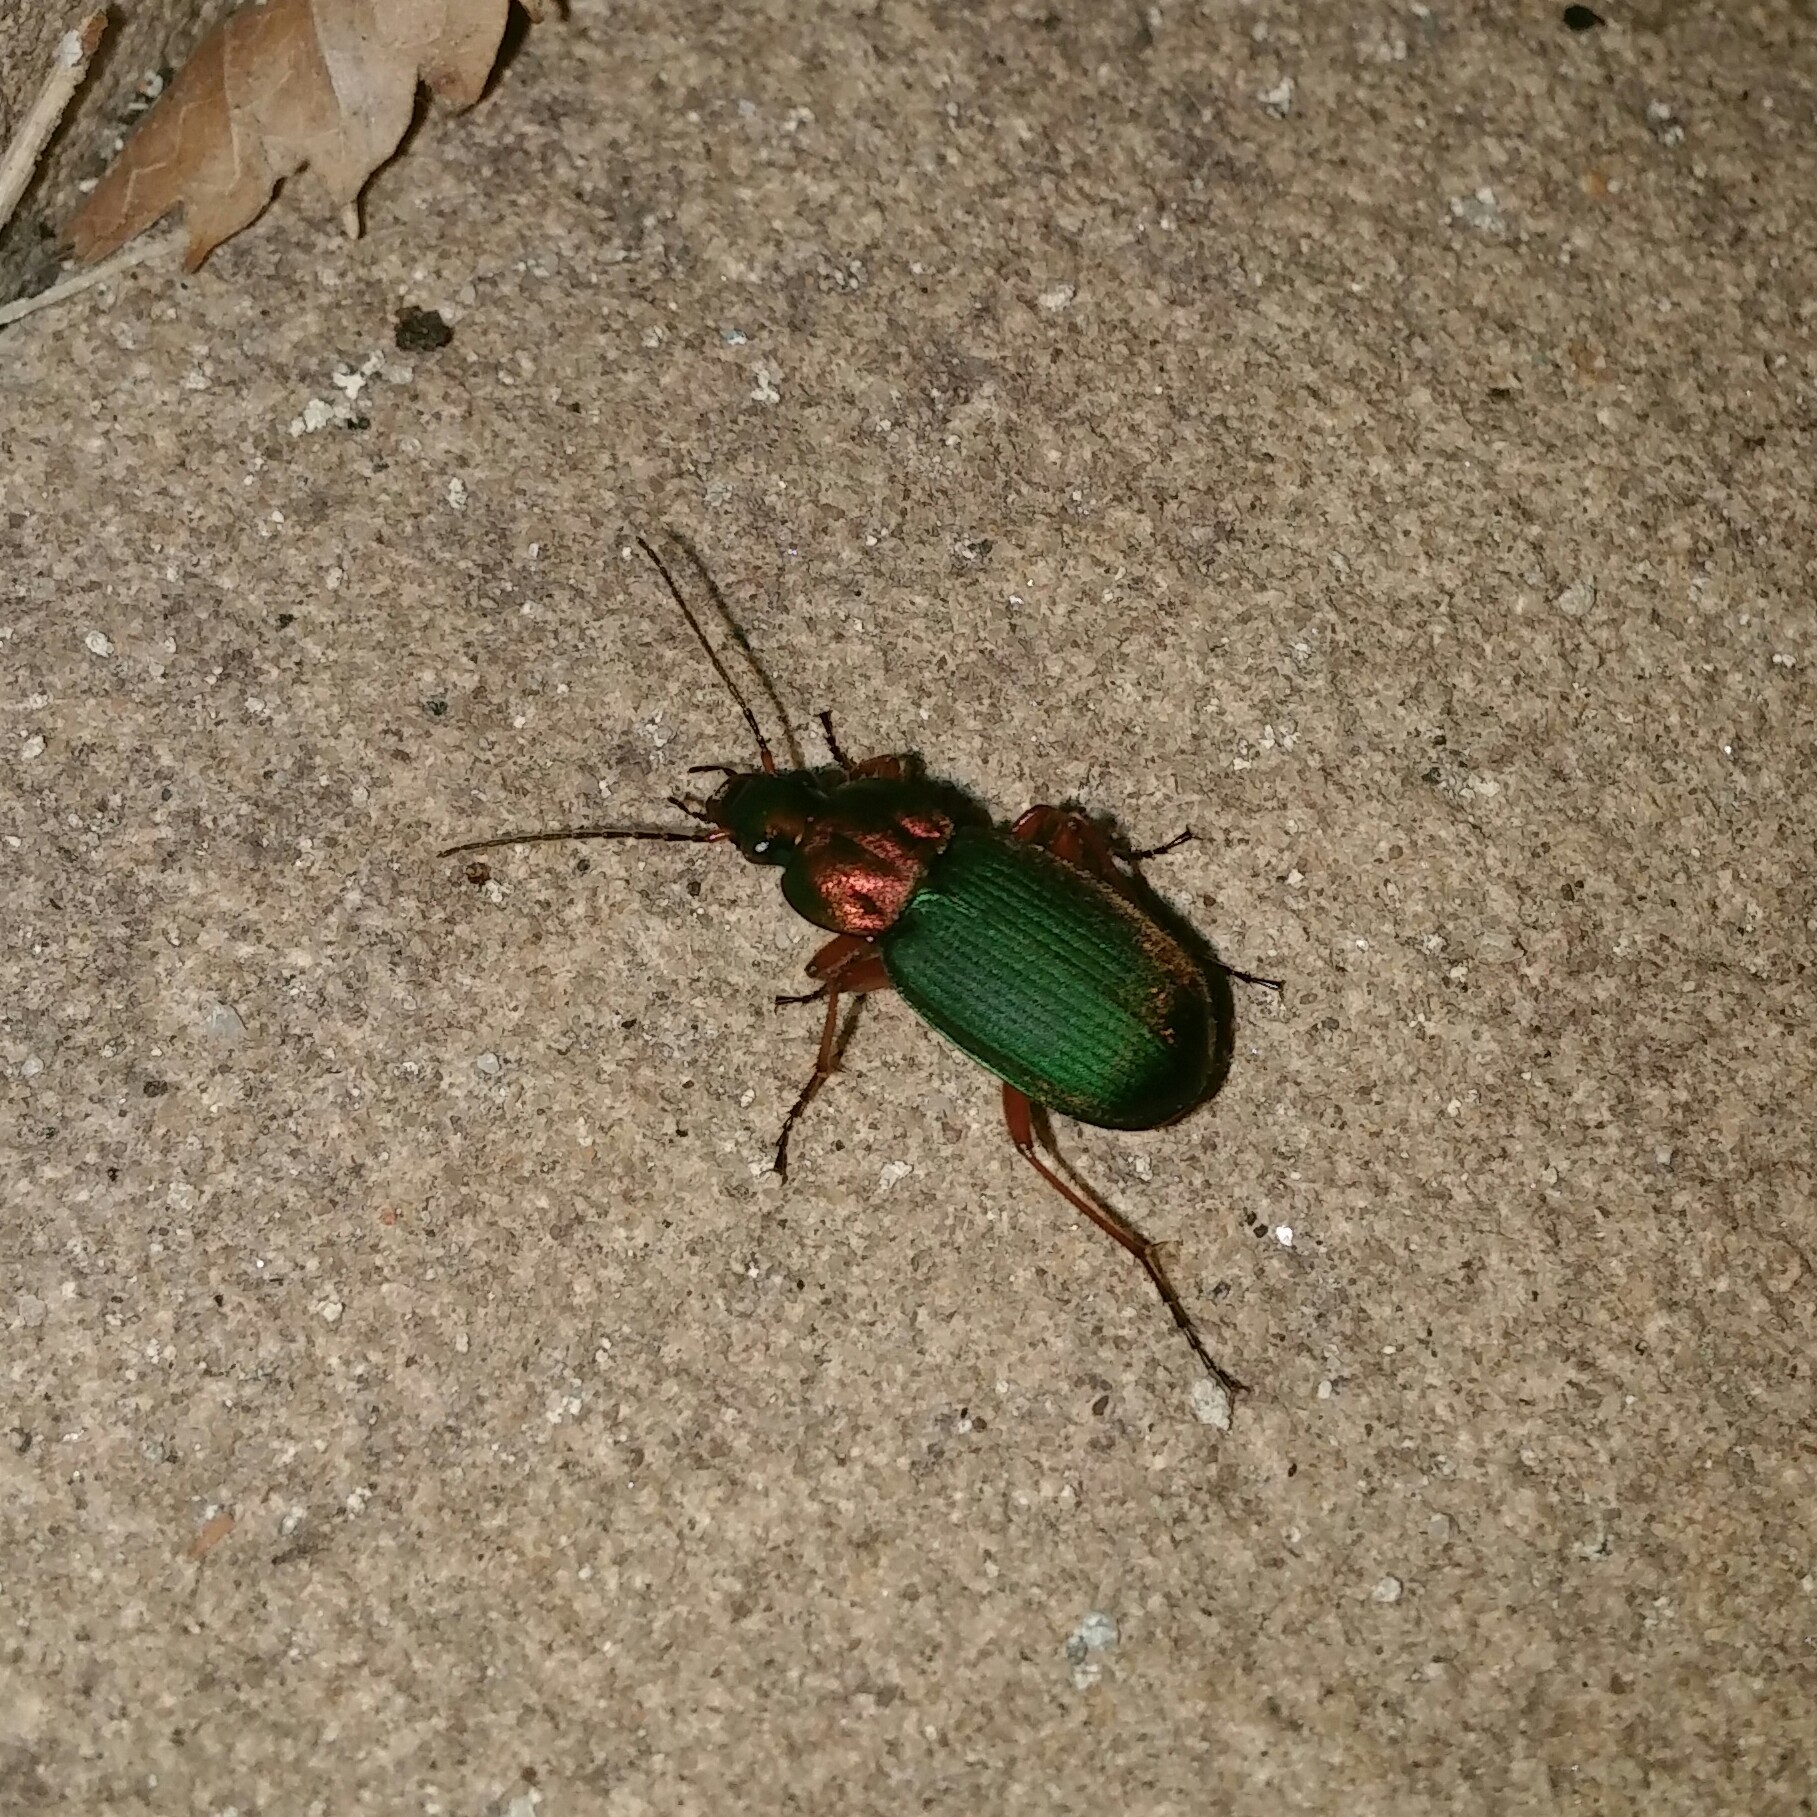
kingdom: Animalia
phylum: Arthropoda
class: Insecta
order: Coleoptera
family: Carabidae
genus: Chlaenius
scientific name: Chlaenius nigricornis
